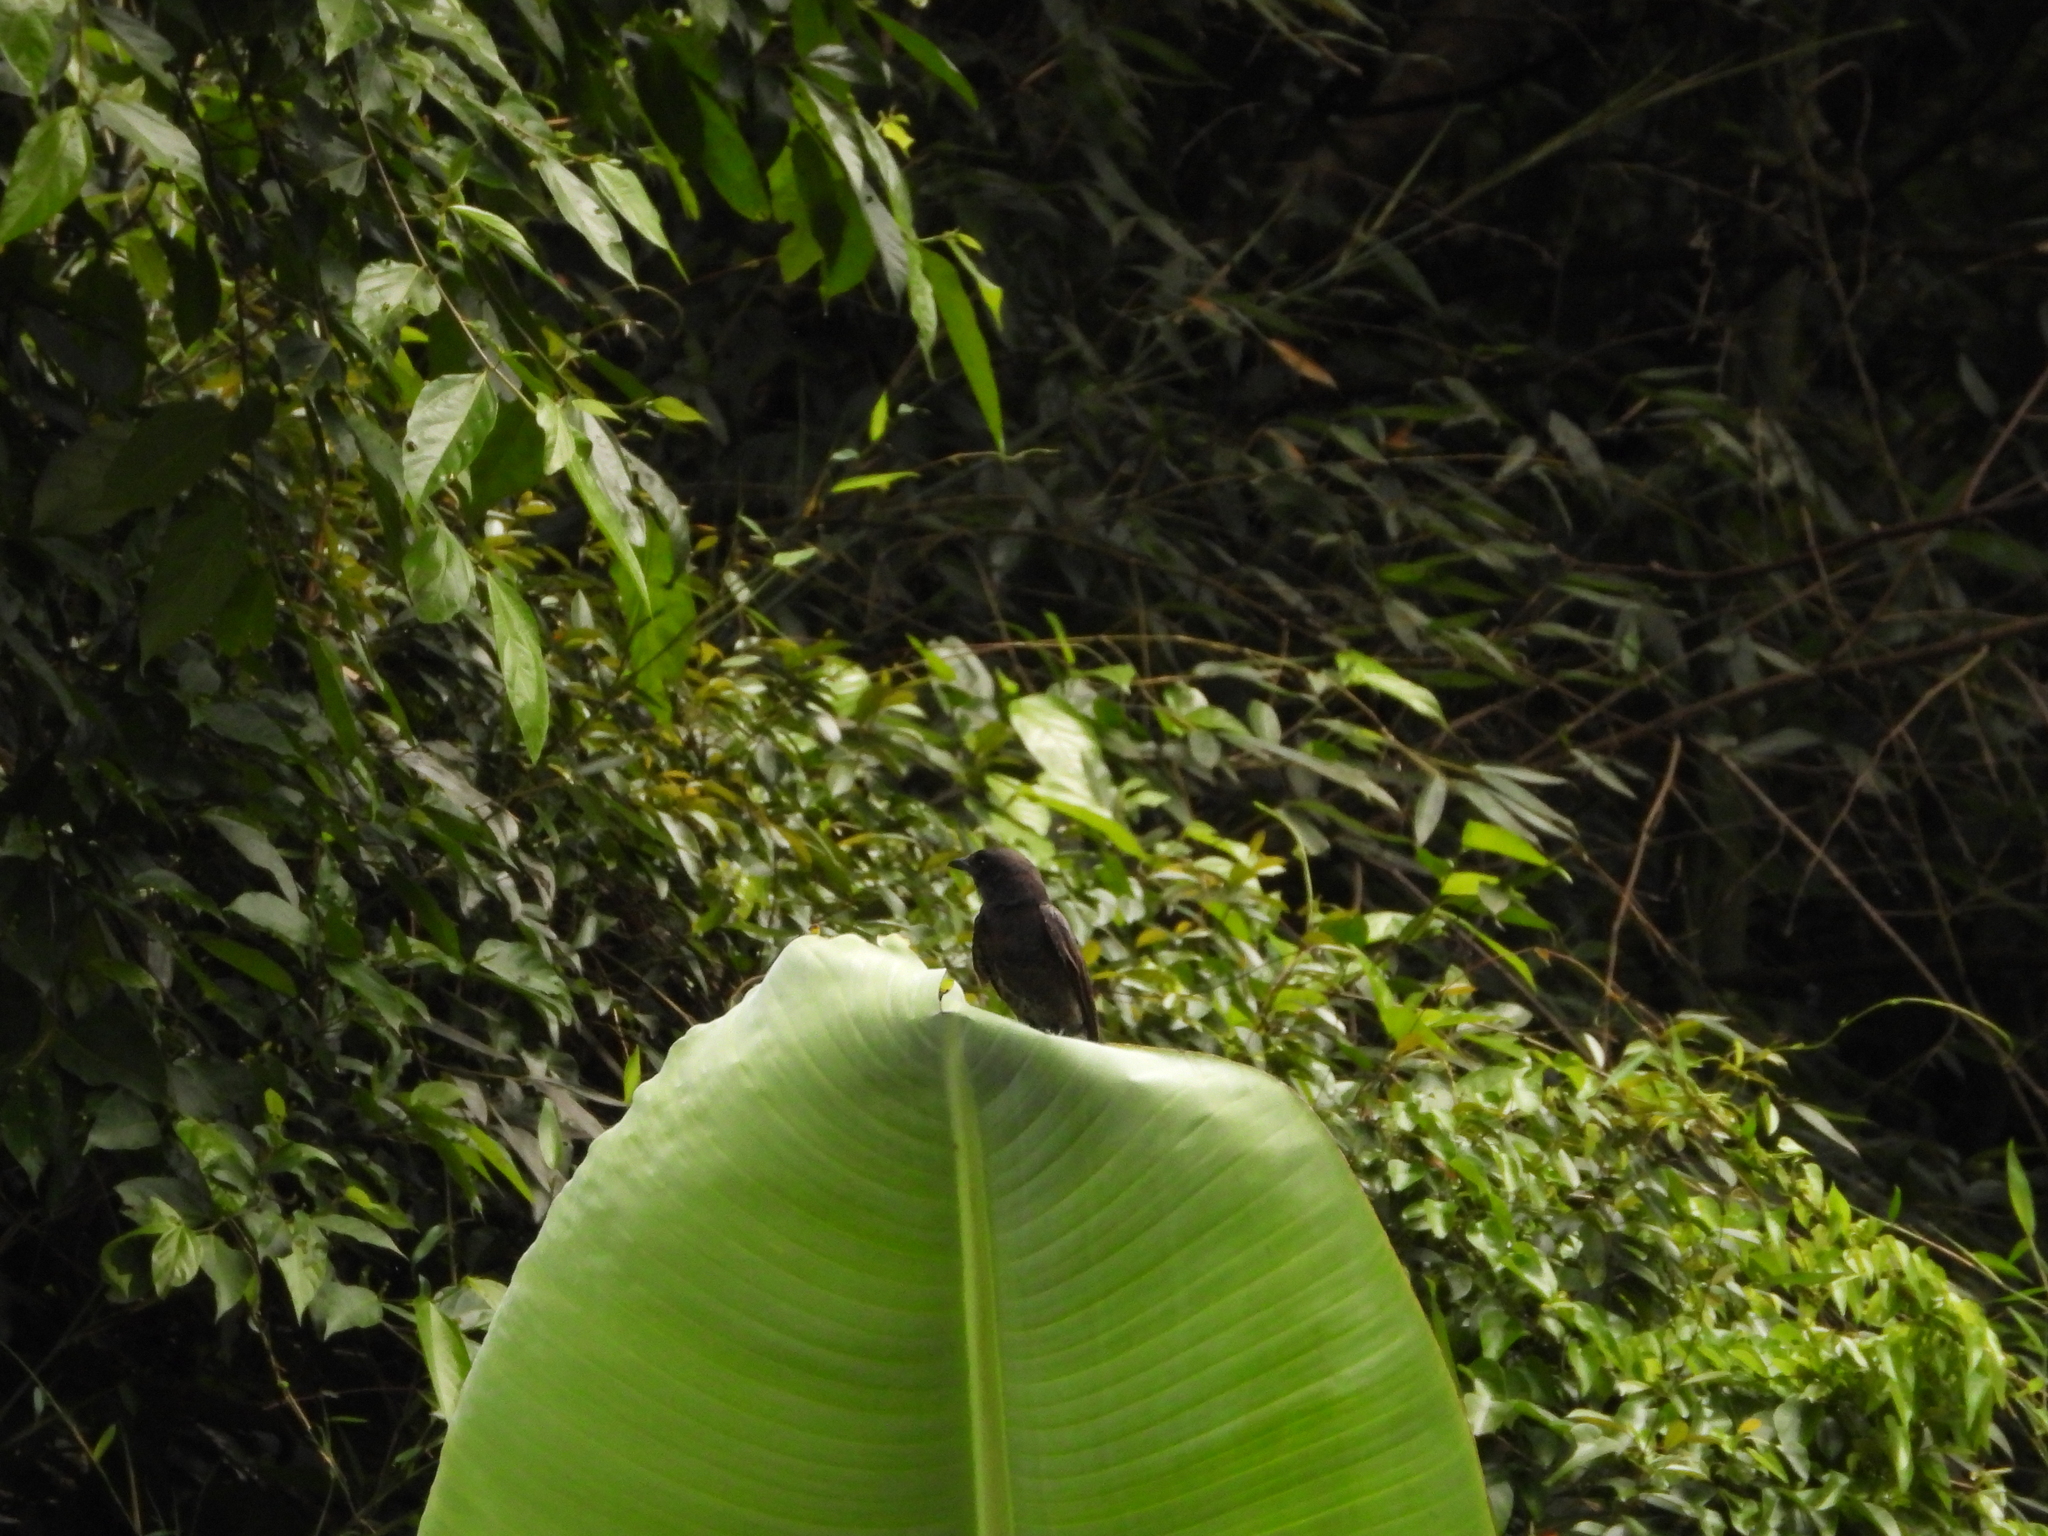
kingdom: Animalia
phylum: Chordata
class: Aves
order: Passeriformes
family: Dicruridae
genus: Dicrurus
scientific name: Dicrurus macrocercus
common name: Black drongo
